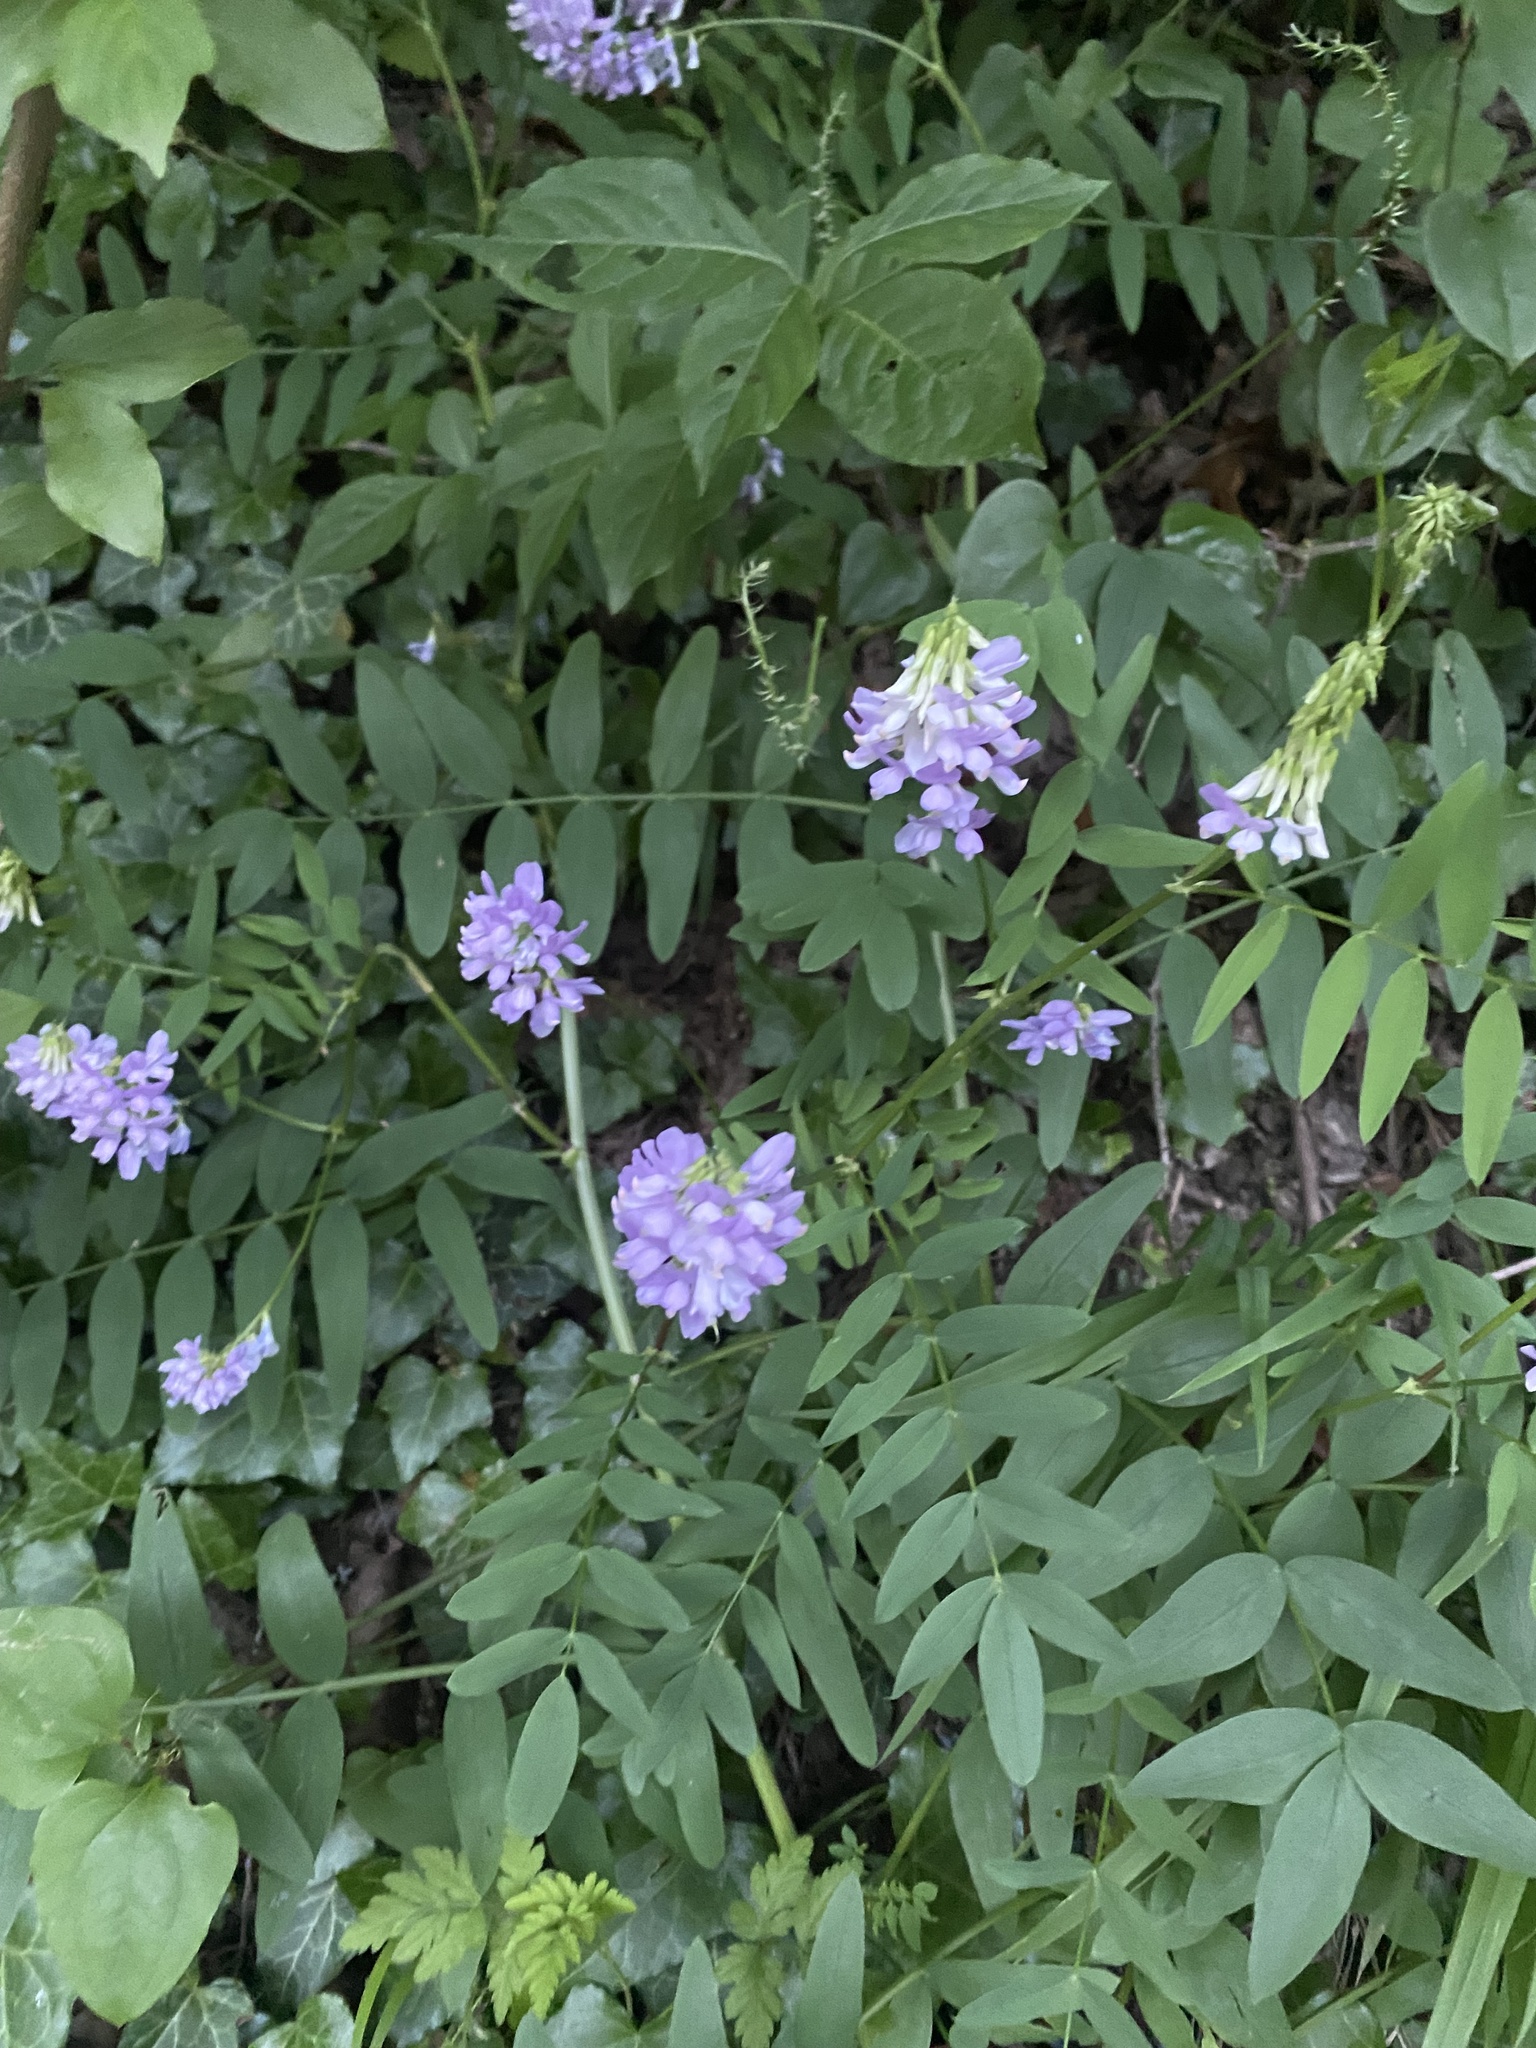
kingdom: Plantae
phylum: Tracheophyta
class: Magnoliopsida
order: Fabales
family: Fabaceae
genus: Galega
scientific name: Galega officinalis
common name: Goat's-rue
